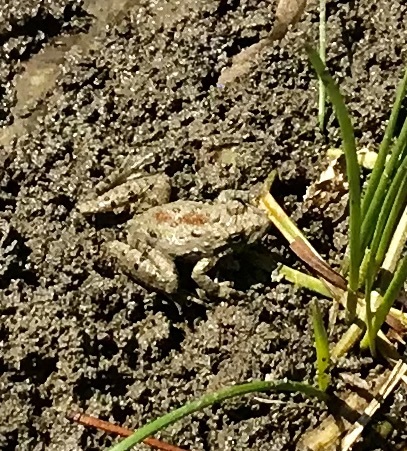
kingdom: Animalia
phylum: Chordata
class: Amphibia
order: Anura
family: Hylidae
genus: Acris
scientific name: Acris blanchardi
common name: Blanchard's cricket frog
